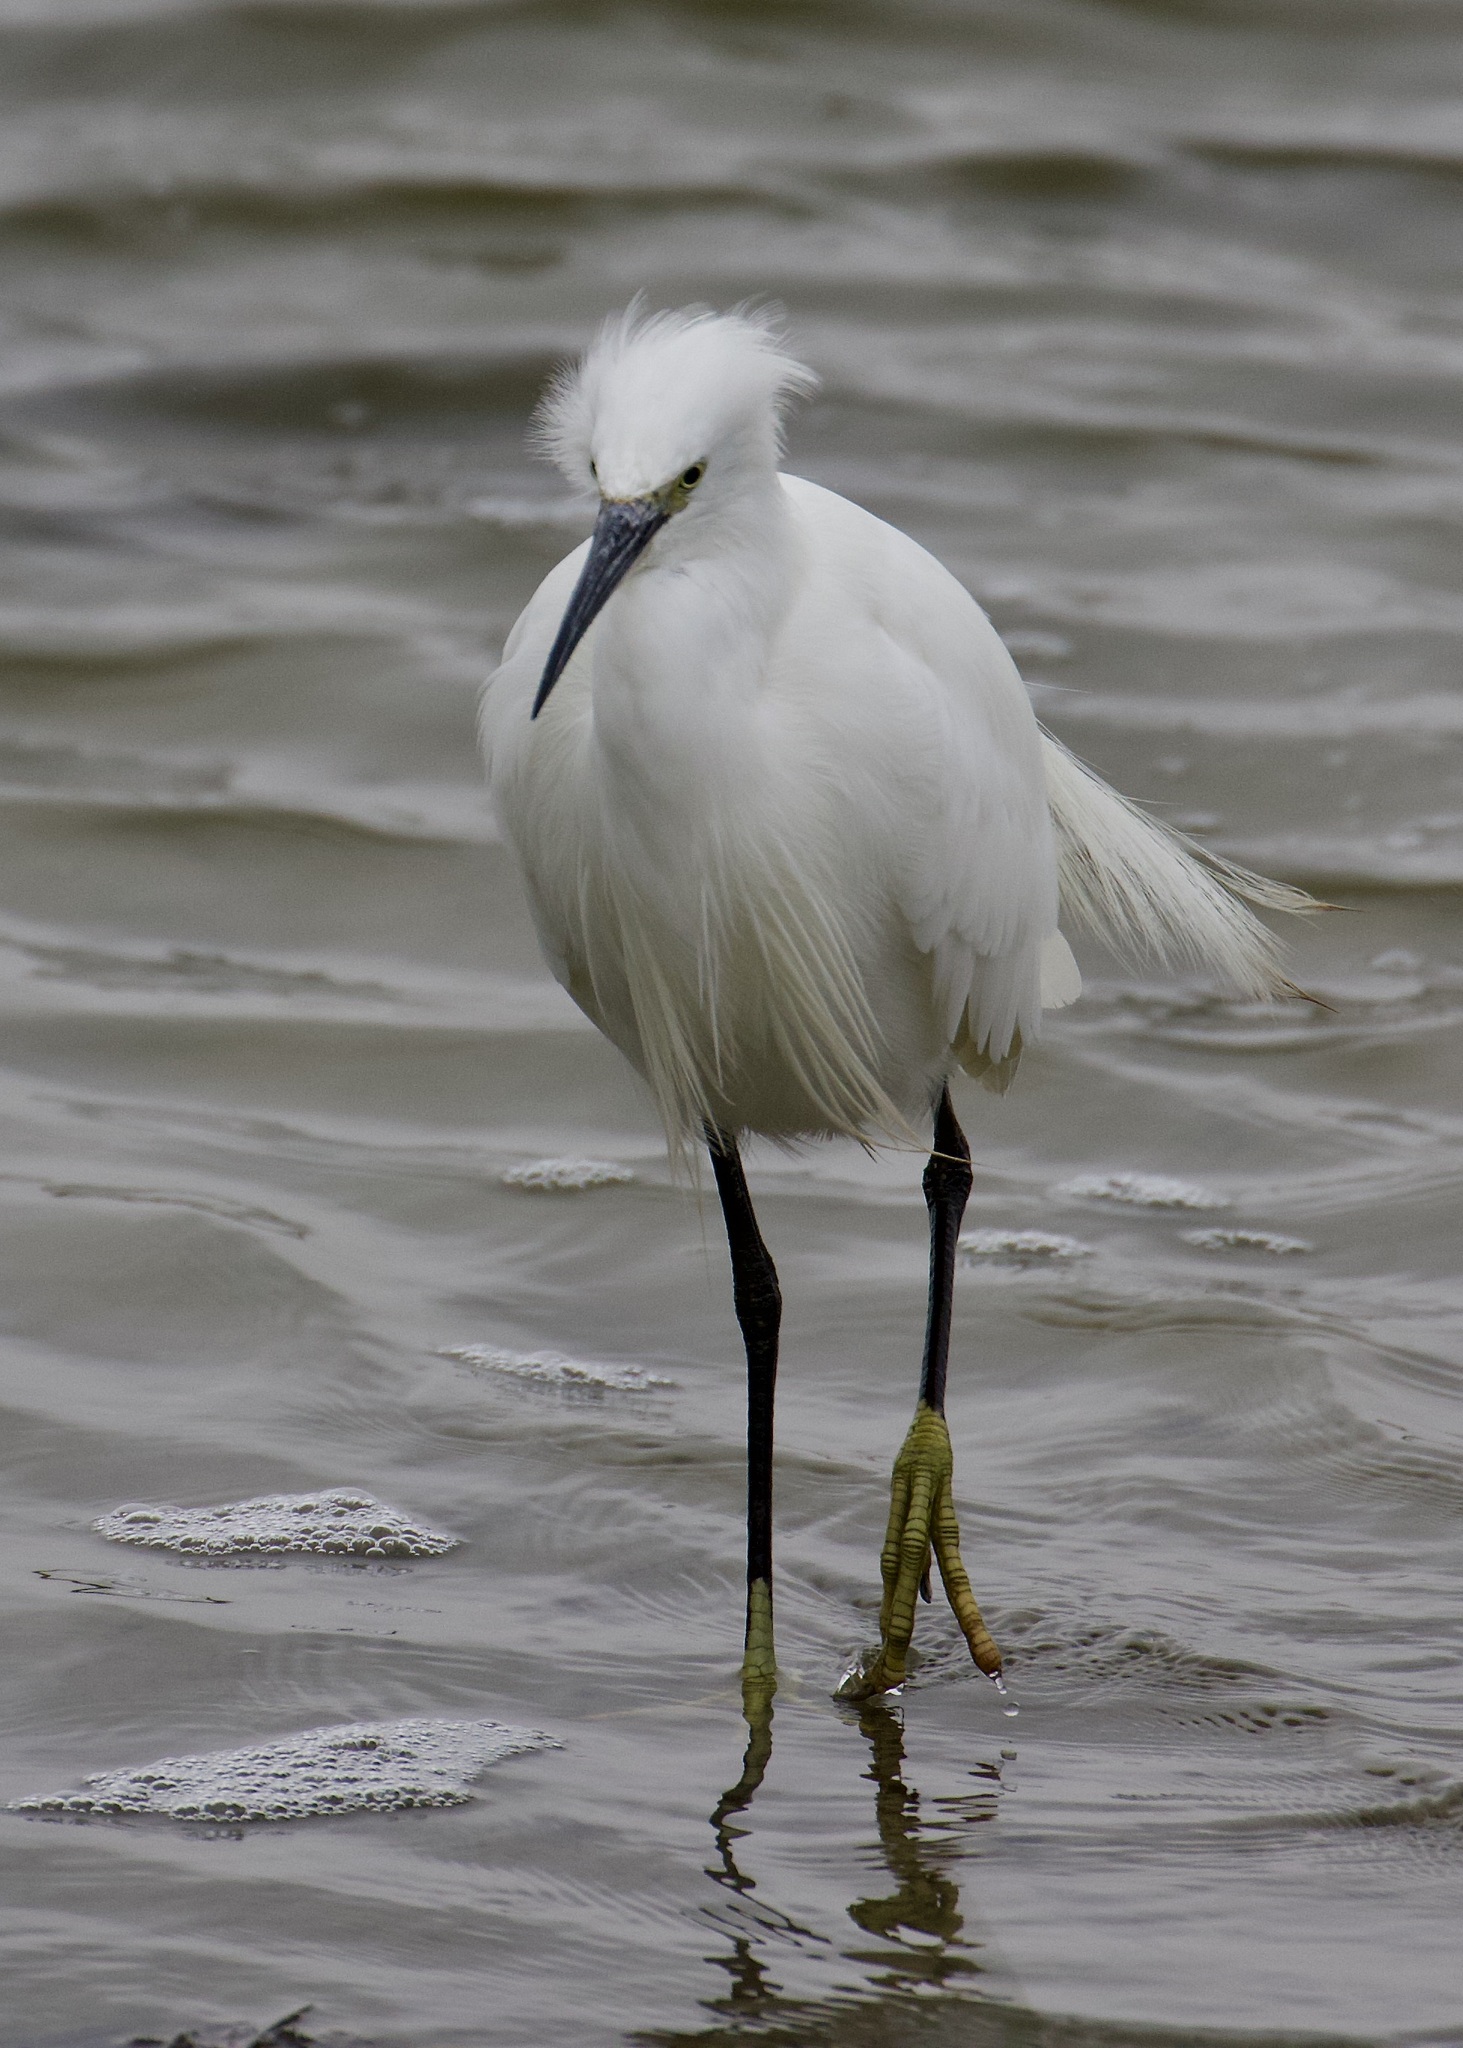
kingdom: Animalia
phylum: Chordata
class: Aves
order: Pelecaniformes
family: Ardeidae
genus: Egretta
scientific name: Egretta garzetta
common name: Little egret
